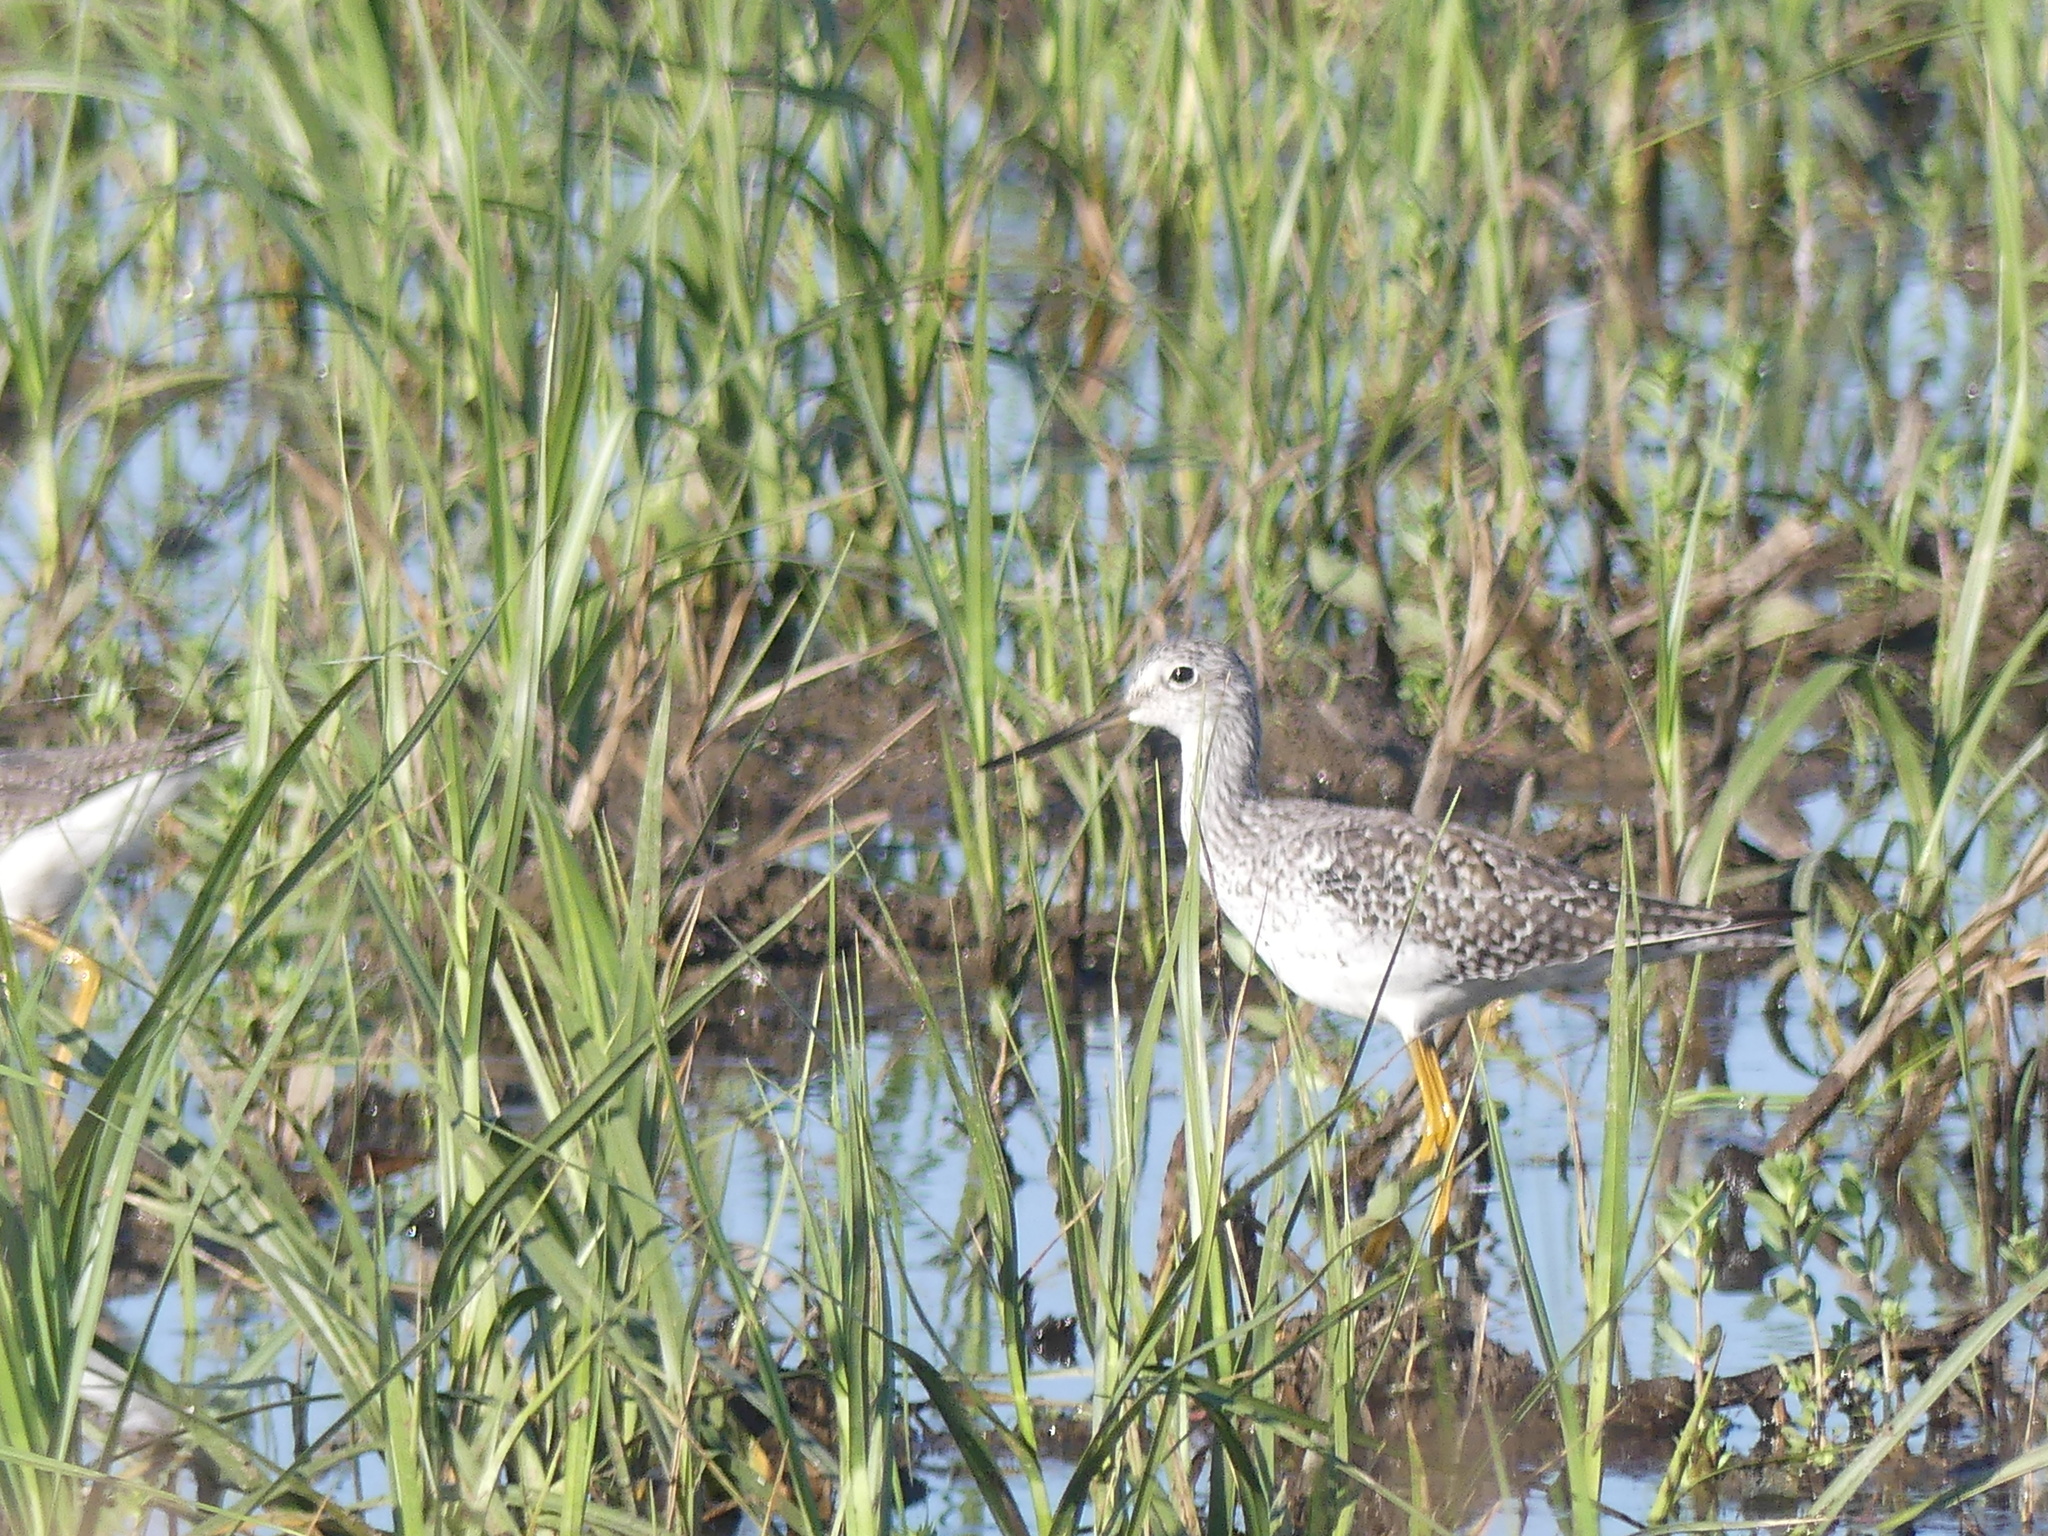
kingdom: Animalia
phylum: Chordata
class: Aves
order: Charadriiformes
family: Scolopacidae
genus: Tringa
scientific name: Tringa melanoleuca
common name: Greater yellowlegs
